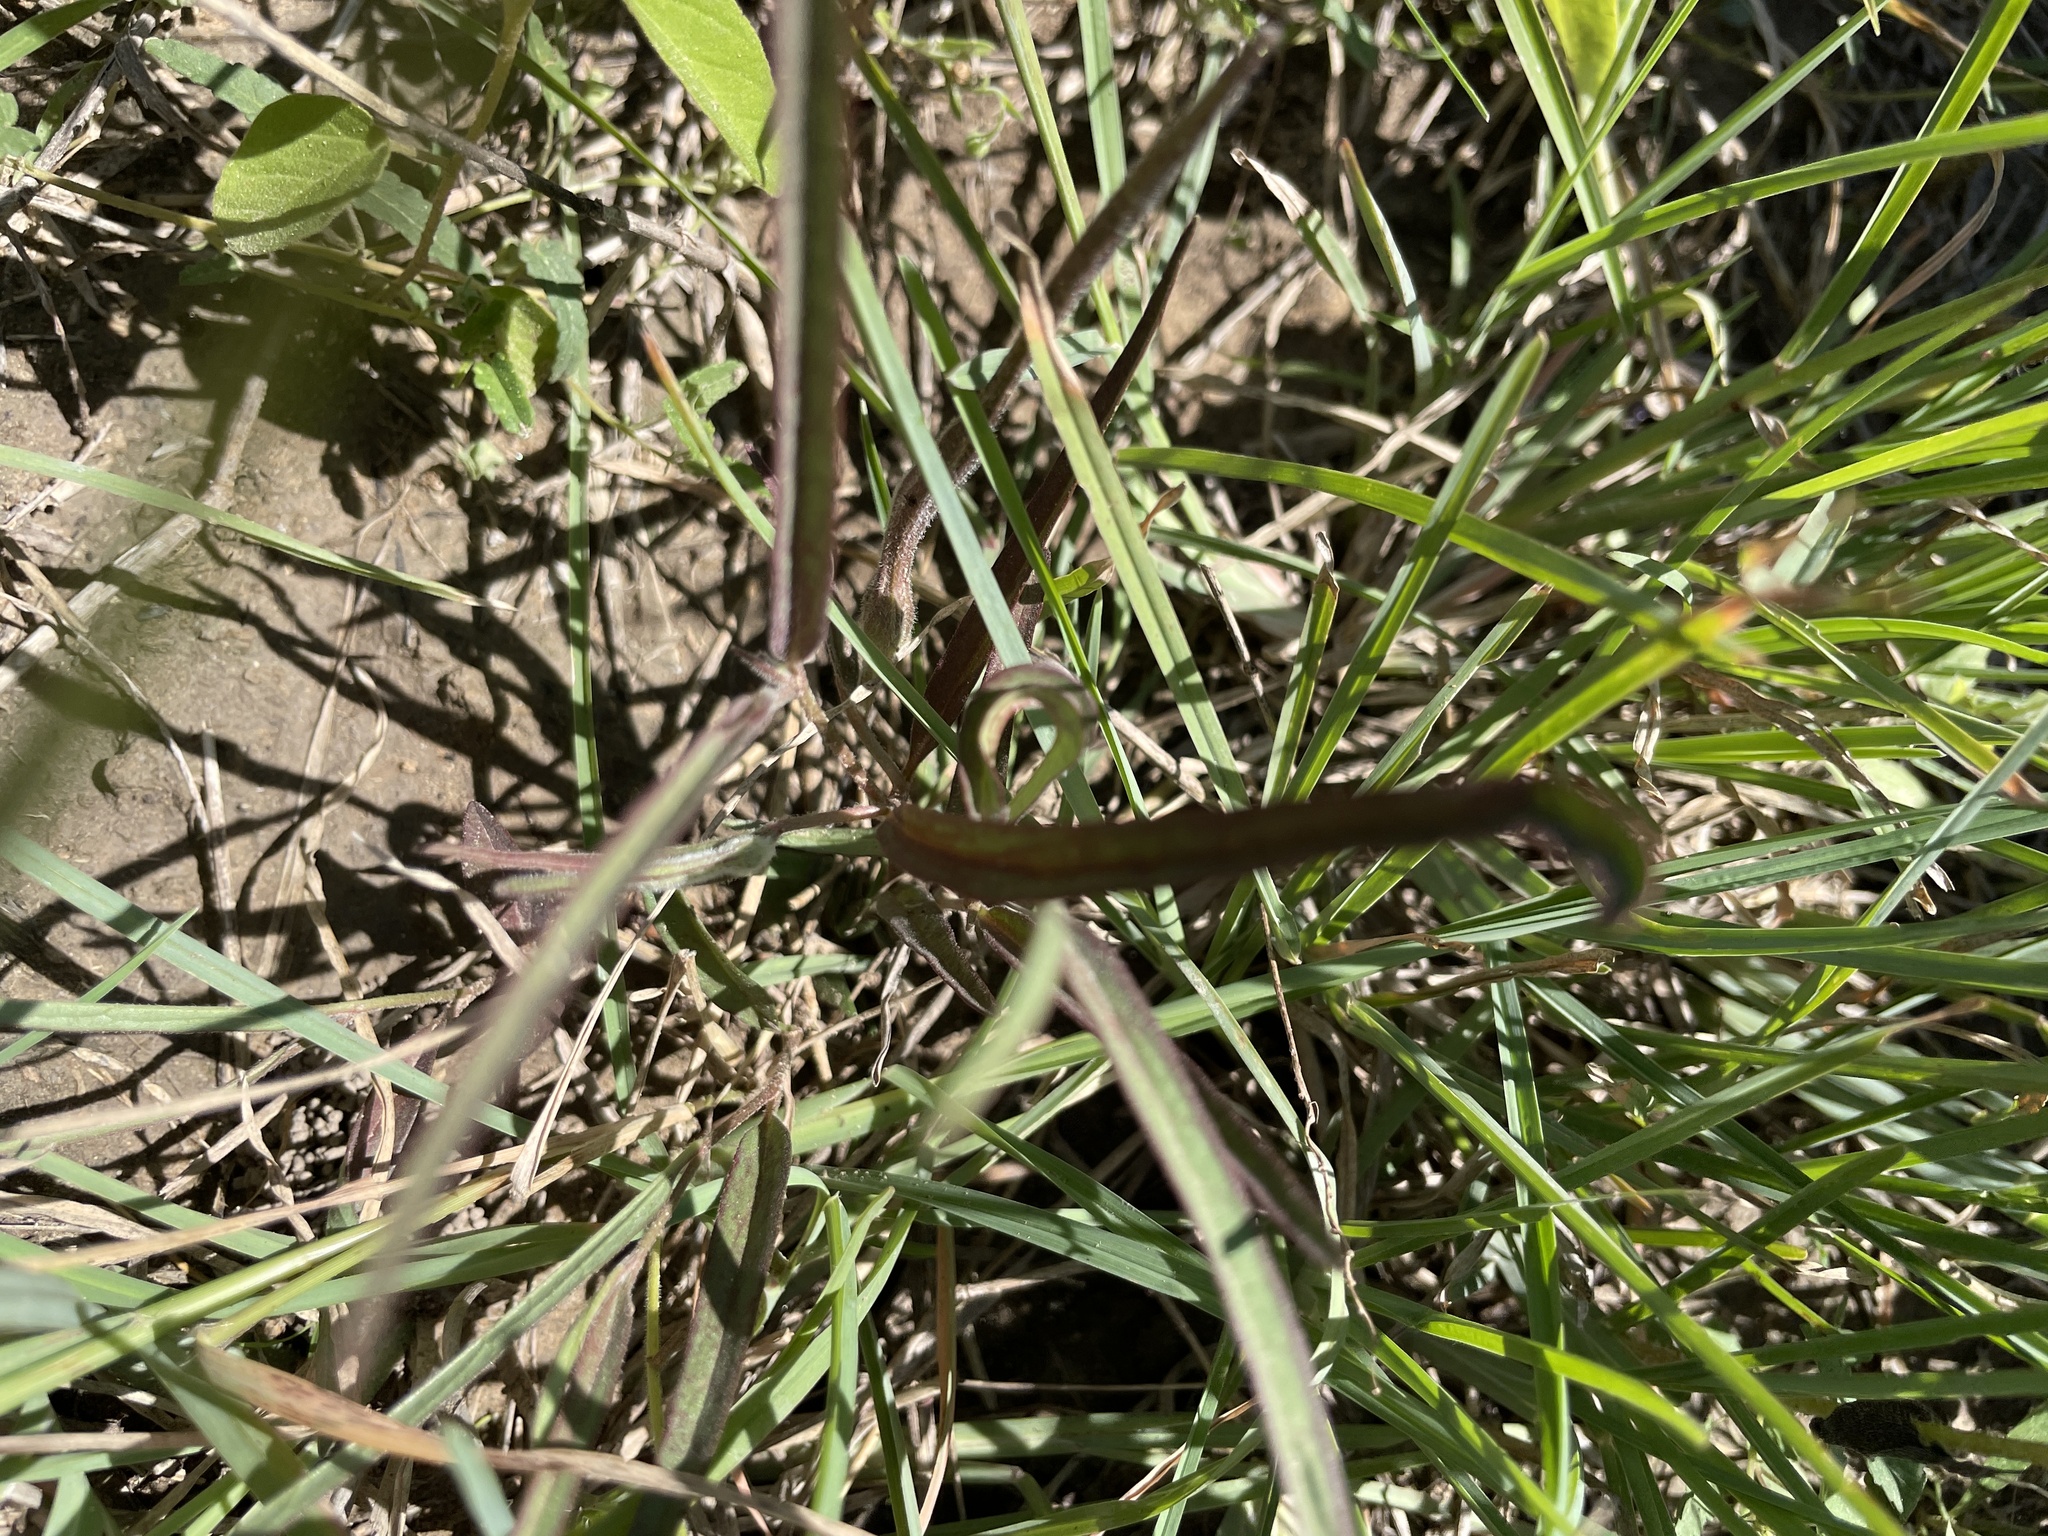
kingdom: Plantae
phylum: Tracheophyta
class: Magnoliopsida
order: Piperales
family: Aristolochiaceae
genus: Aristolochia
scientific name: Aristolochia erecta
